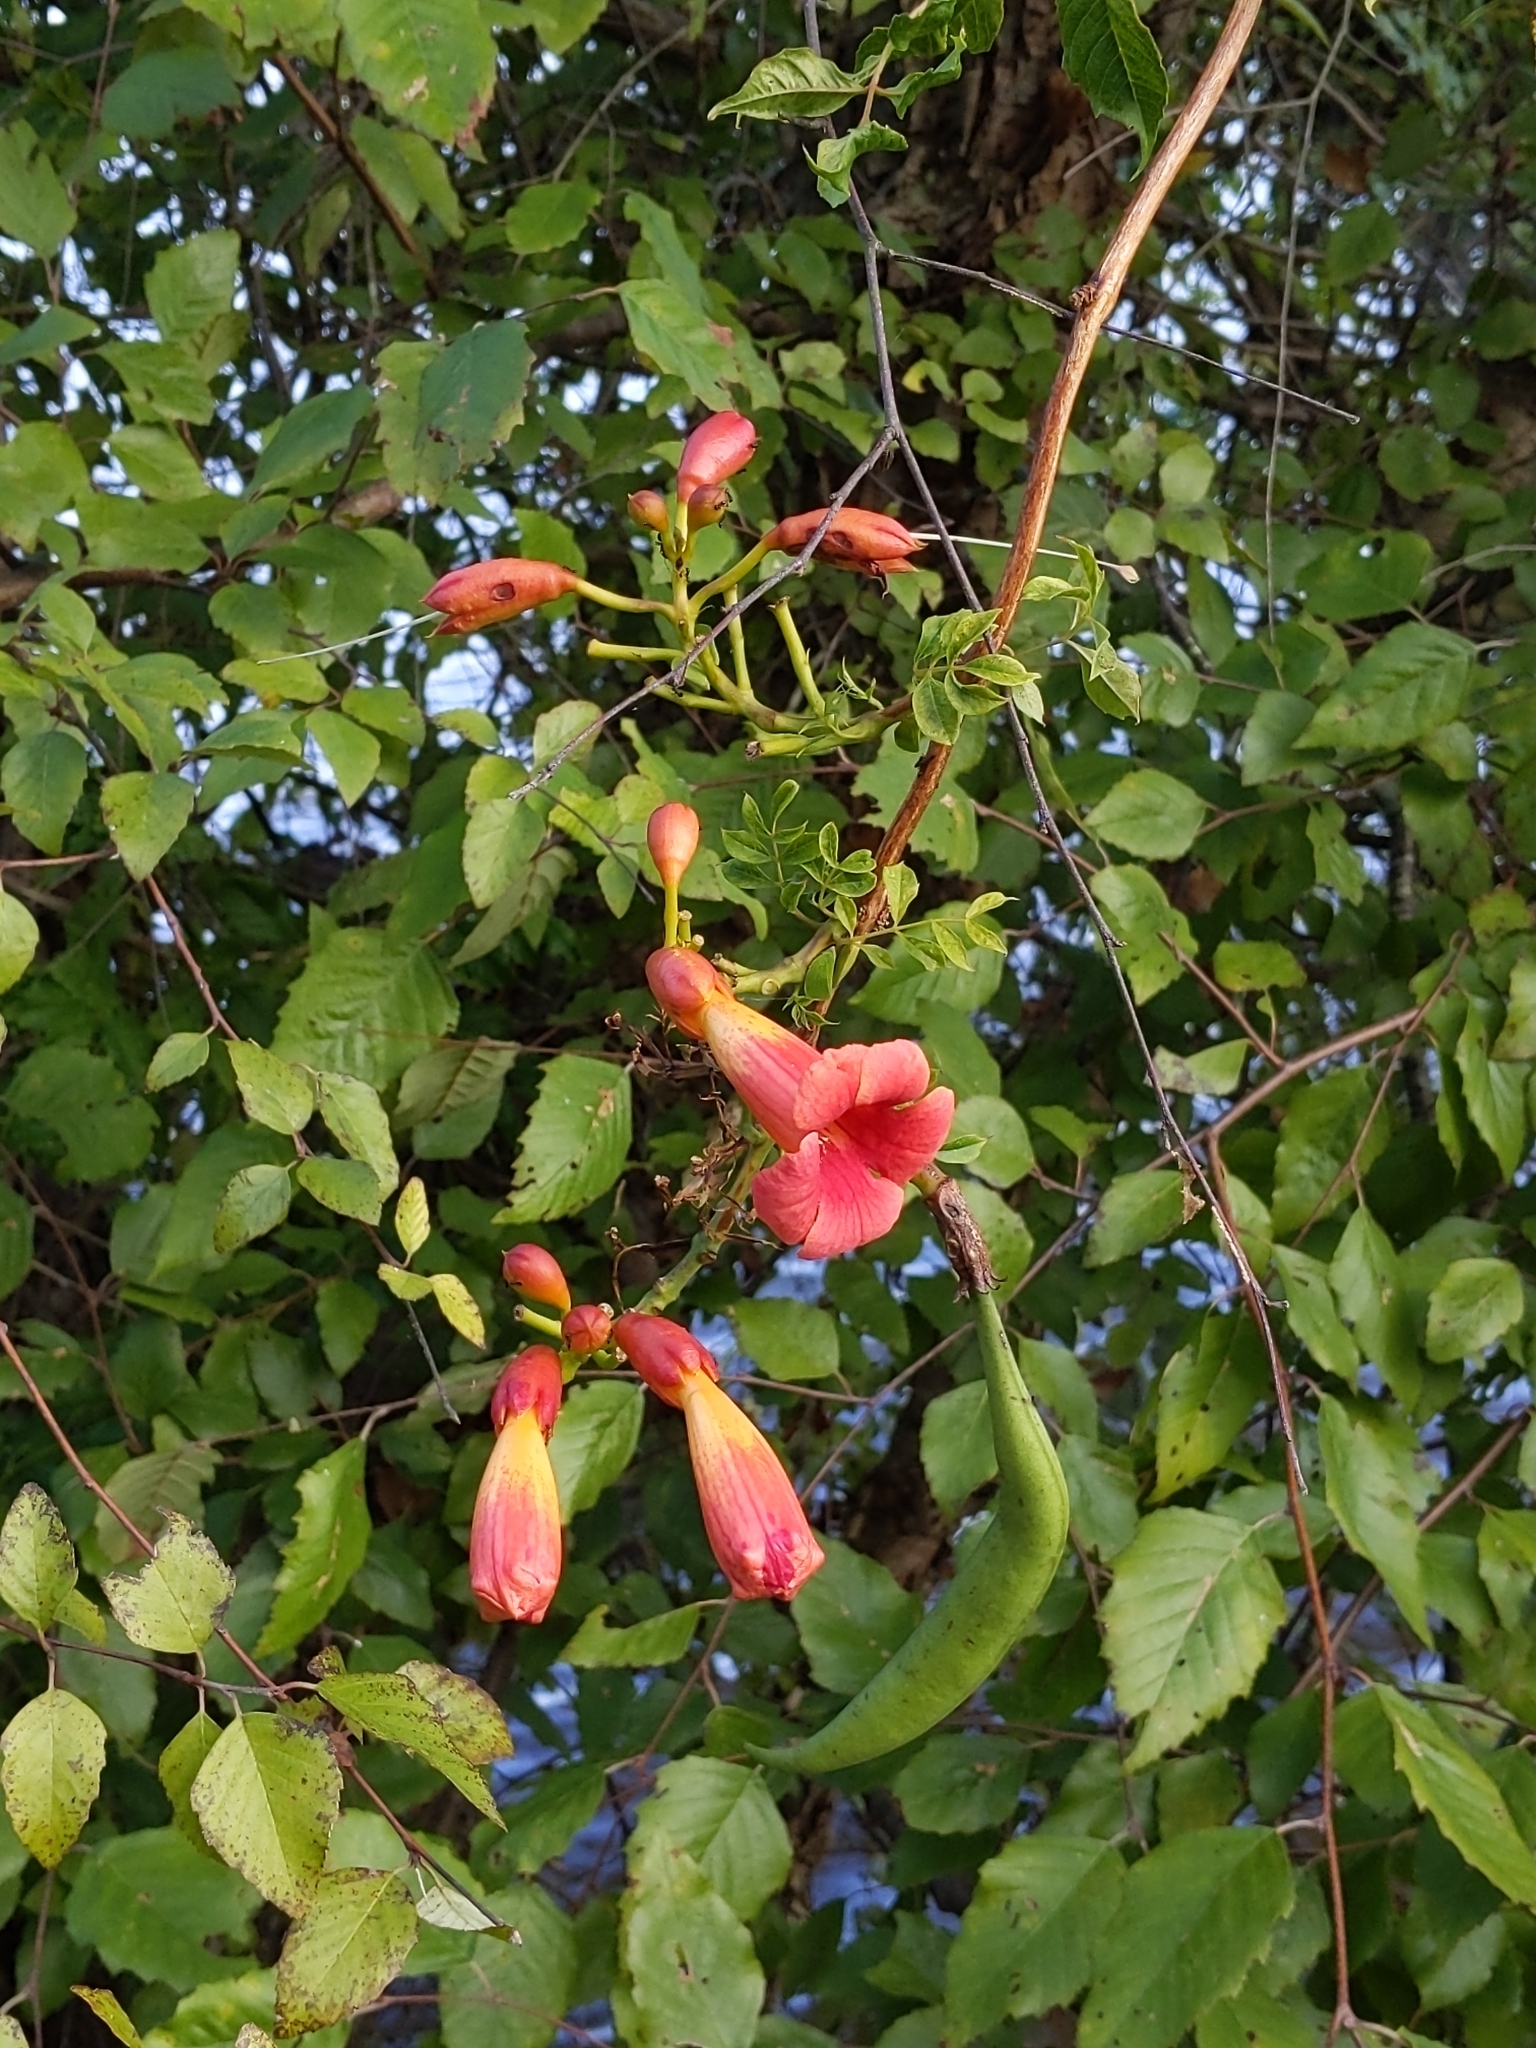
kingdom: Plantae
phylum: Tracheophyta
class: Magnoliopsida
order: Lamiales
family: Bignoniaceae
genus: Campsis
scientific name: Campsis radicans
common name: Trumpet-creeper
